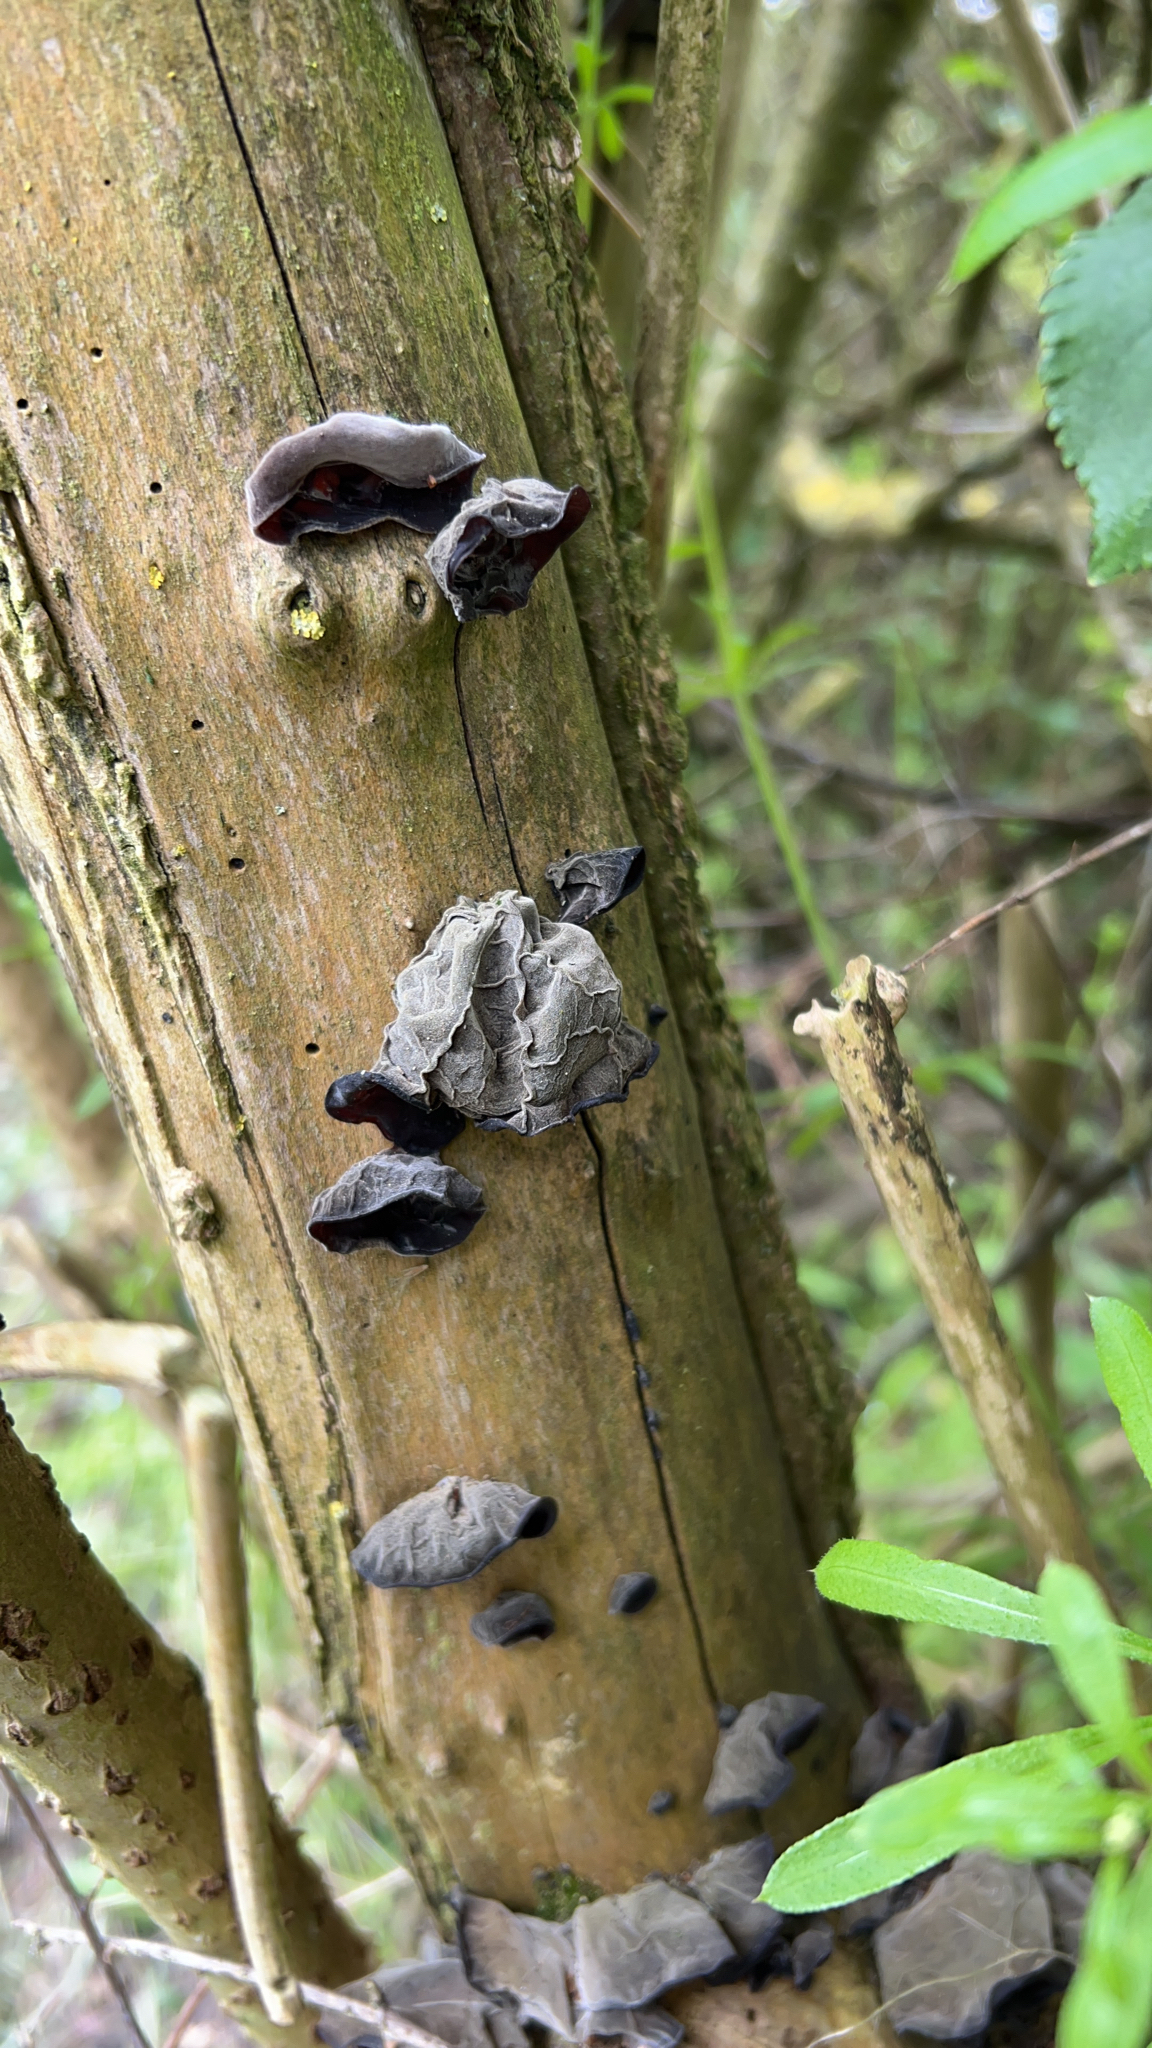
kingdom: Fungi
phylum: Basidiomycota
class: Agaricomycetes
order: Auriculariales
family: Auriculariaceae
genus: Auricularia
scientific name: Auricularia auricula-judae
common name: Jelly ear
